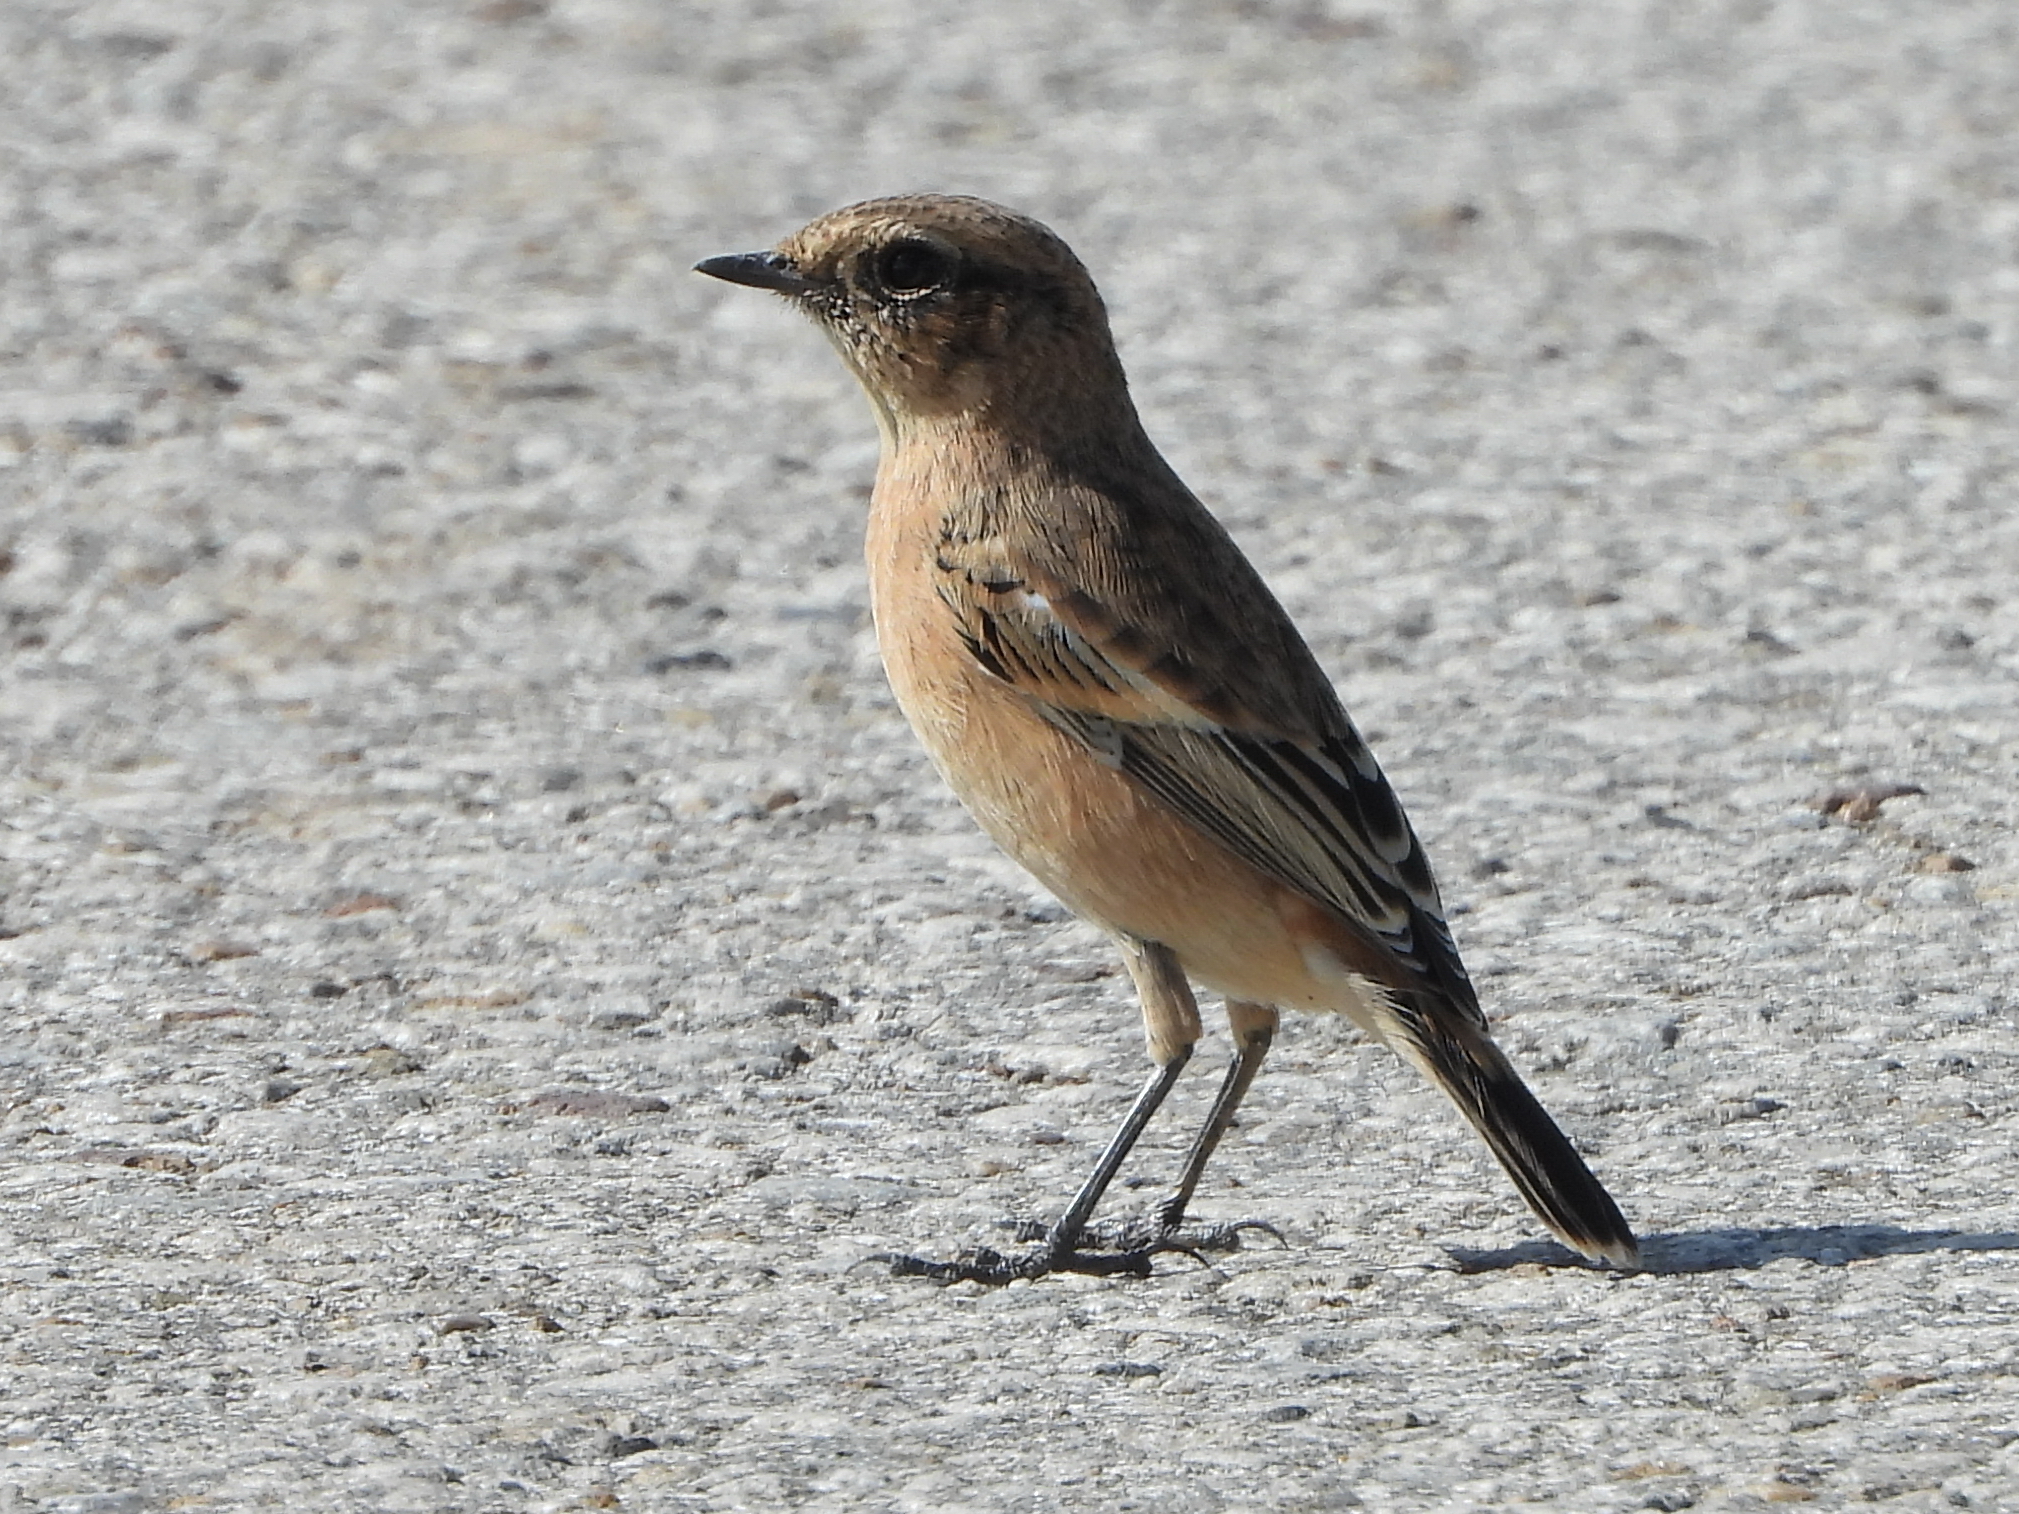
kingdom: Animalia
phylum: Chordata
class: Aves
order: Passeriformes
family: Muscicapidae
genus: Saxicola
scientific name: Saxicola maurus
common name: Siberian stonechat
